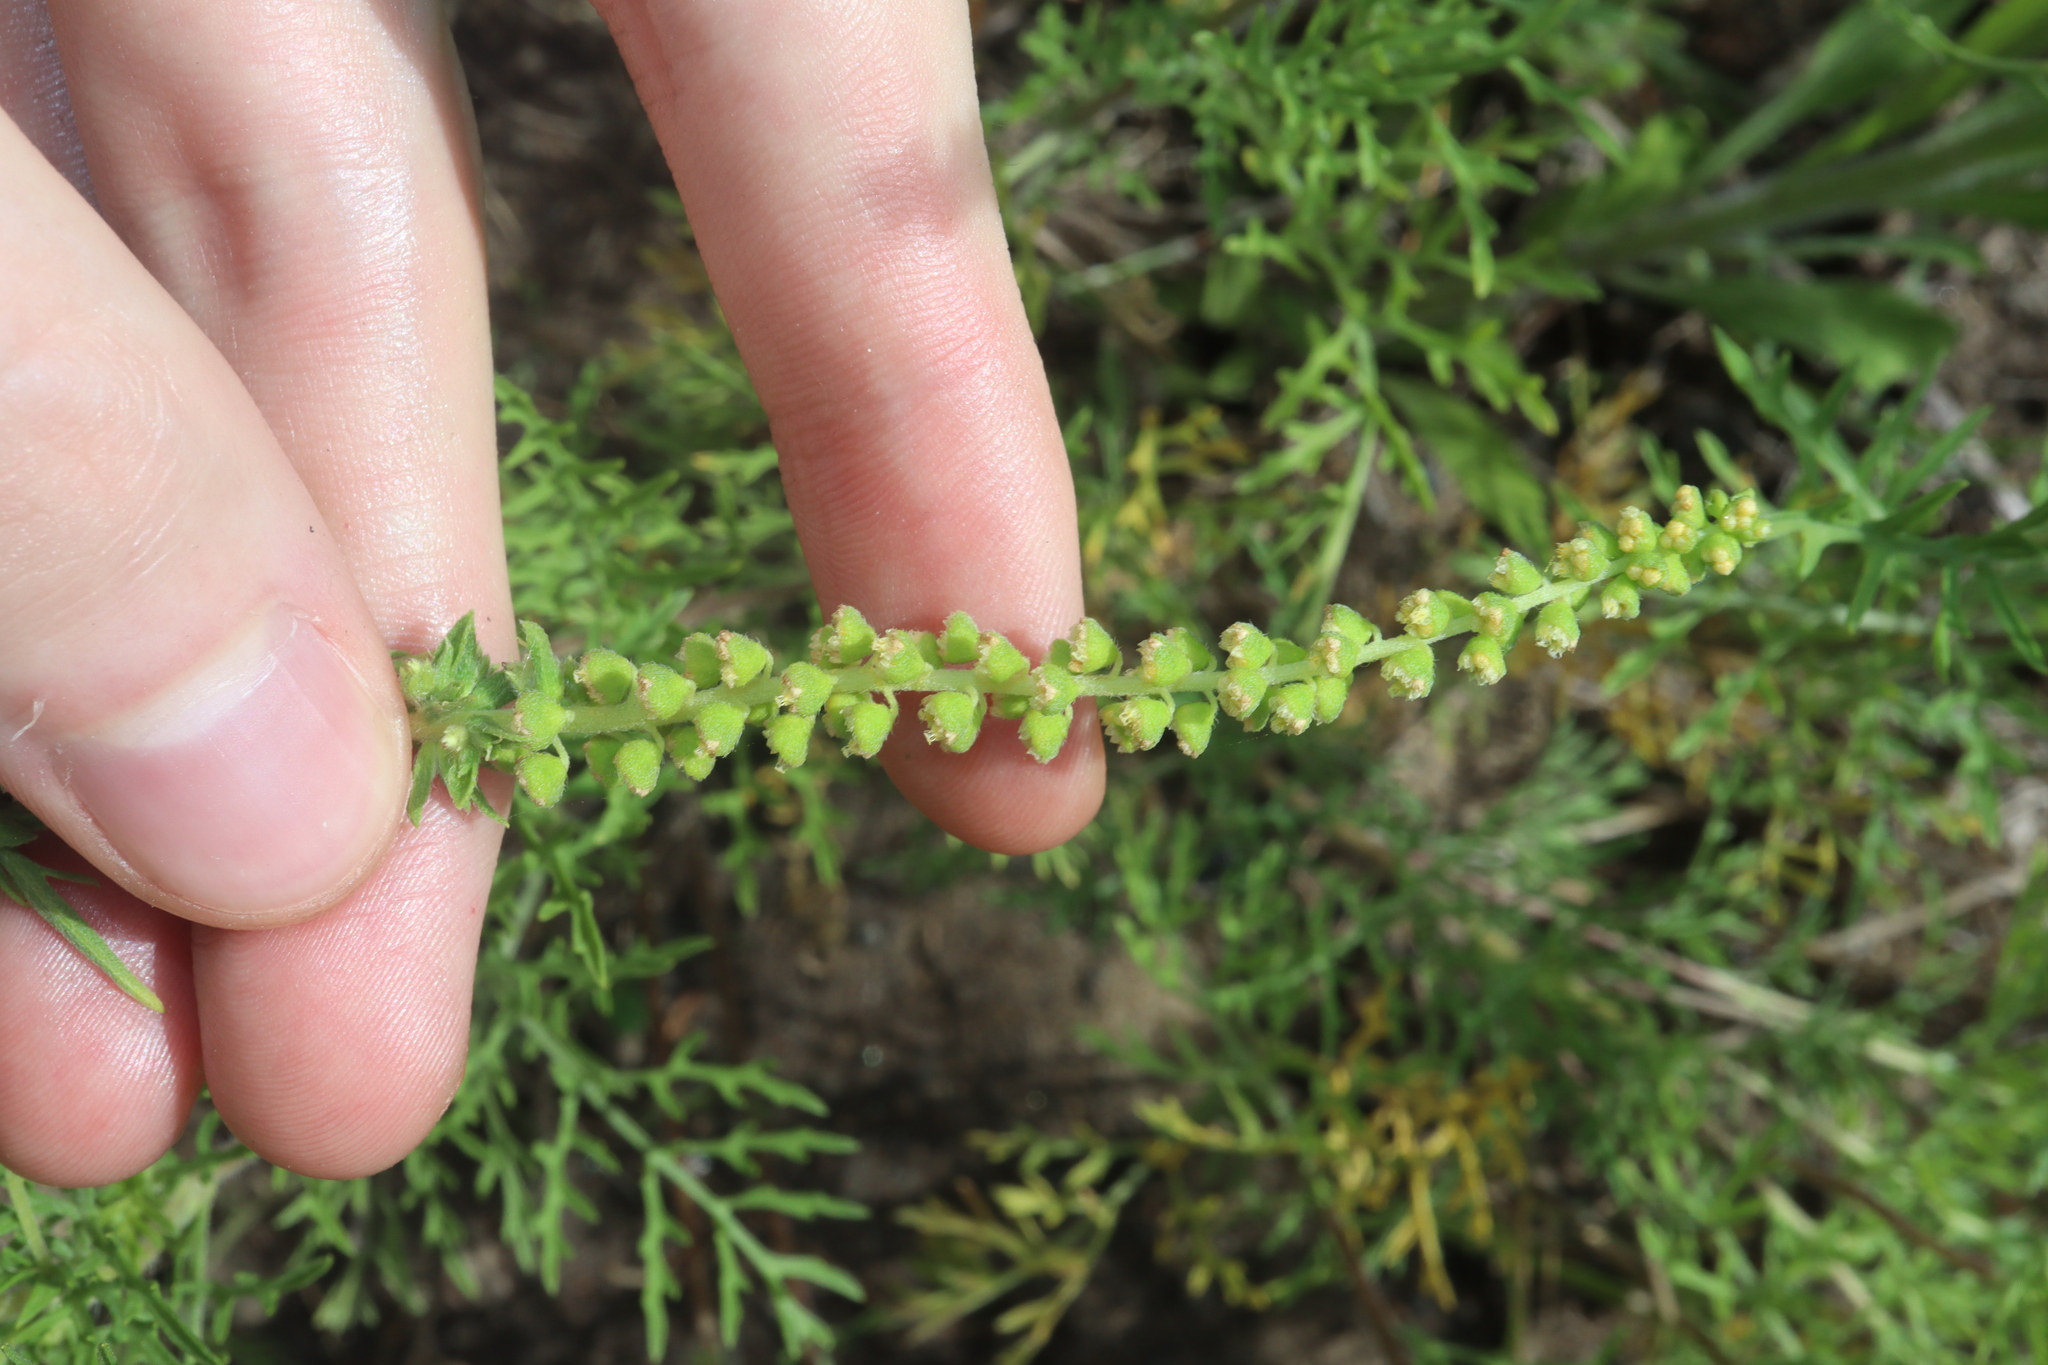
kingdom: Plantae
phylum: Tracheophyta
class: Magnoliopsida
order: Asterales
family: Asteraceae
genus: Ambrosia
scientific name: Ambrosia artemisiifolia
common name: Annual ragweed
